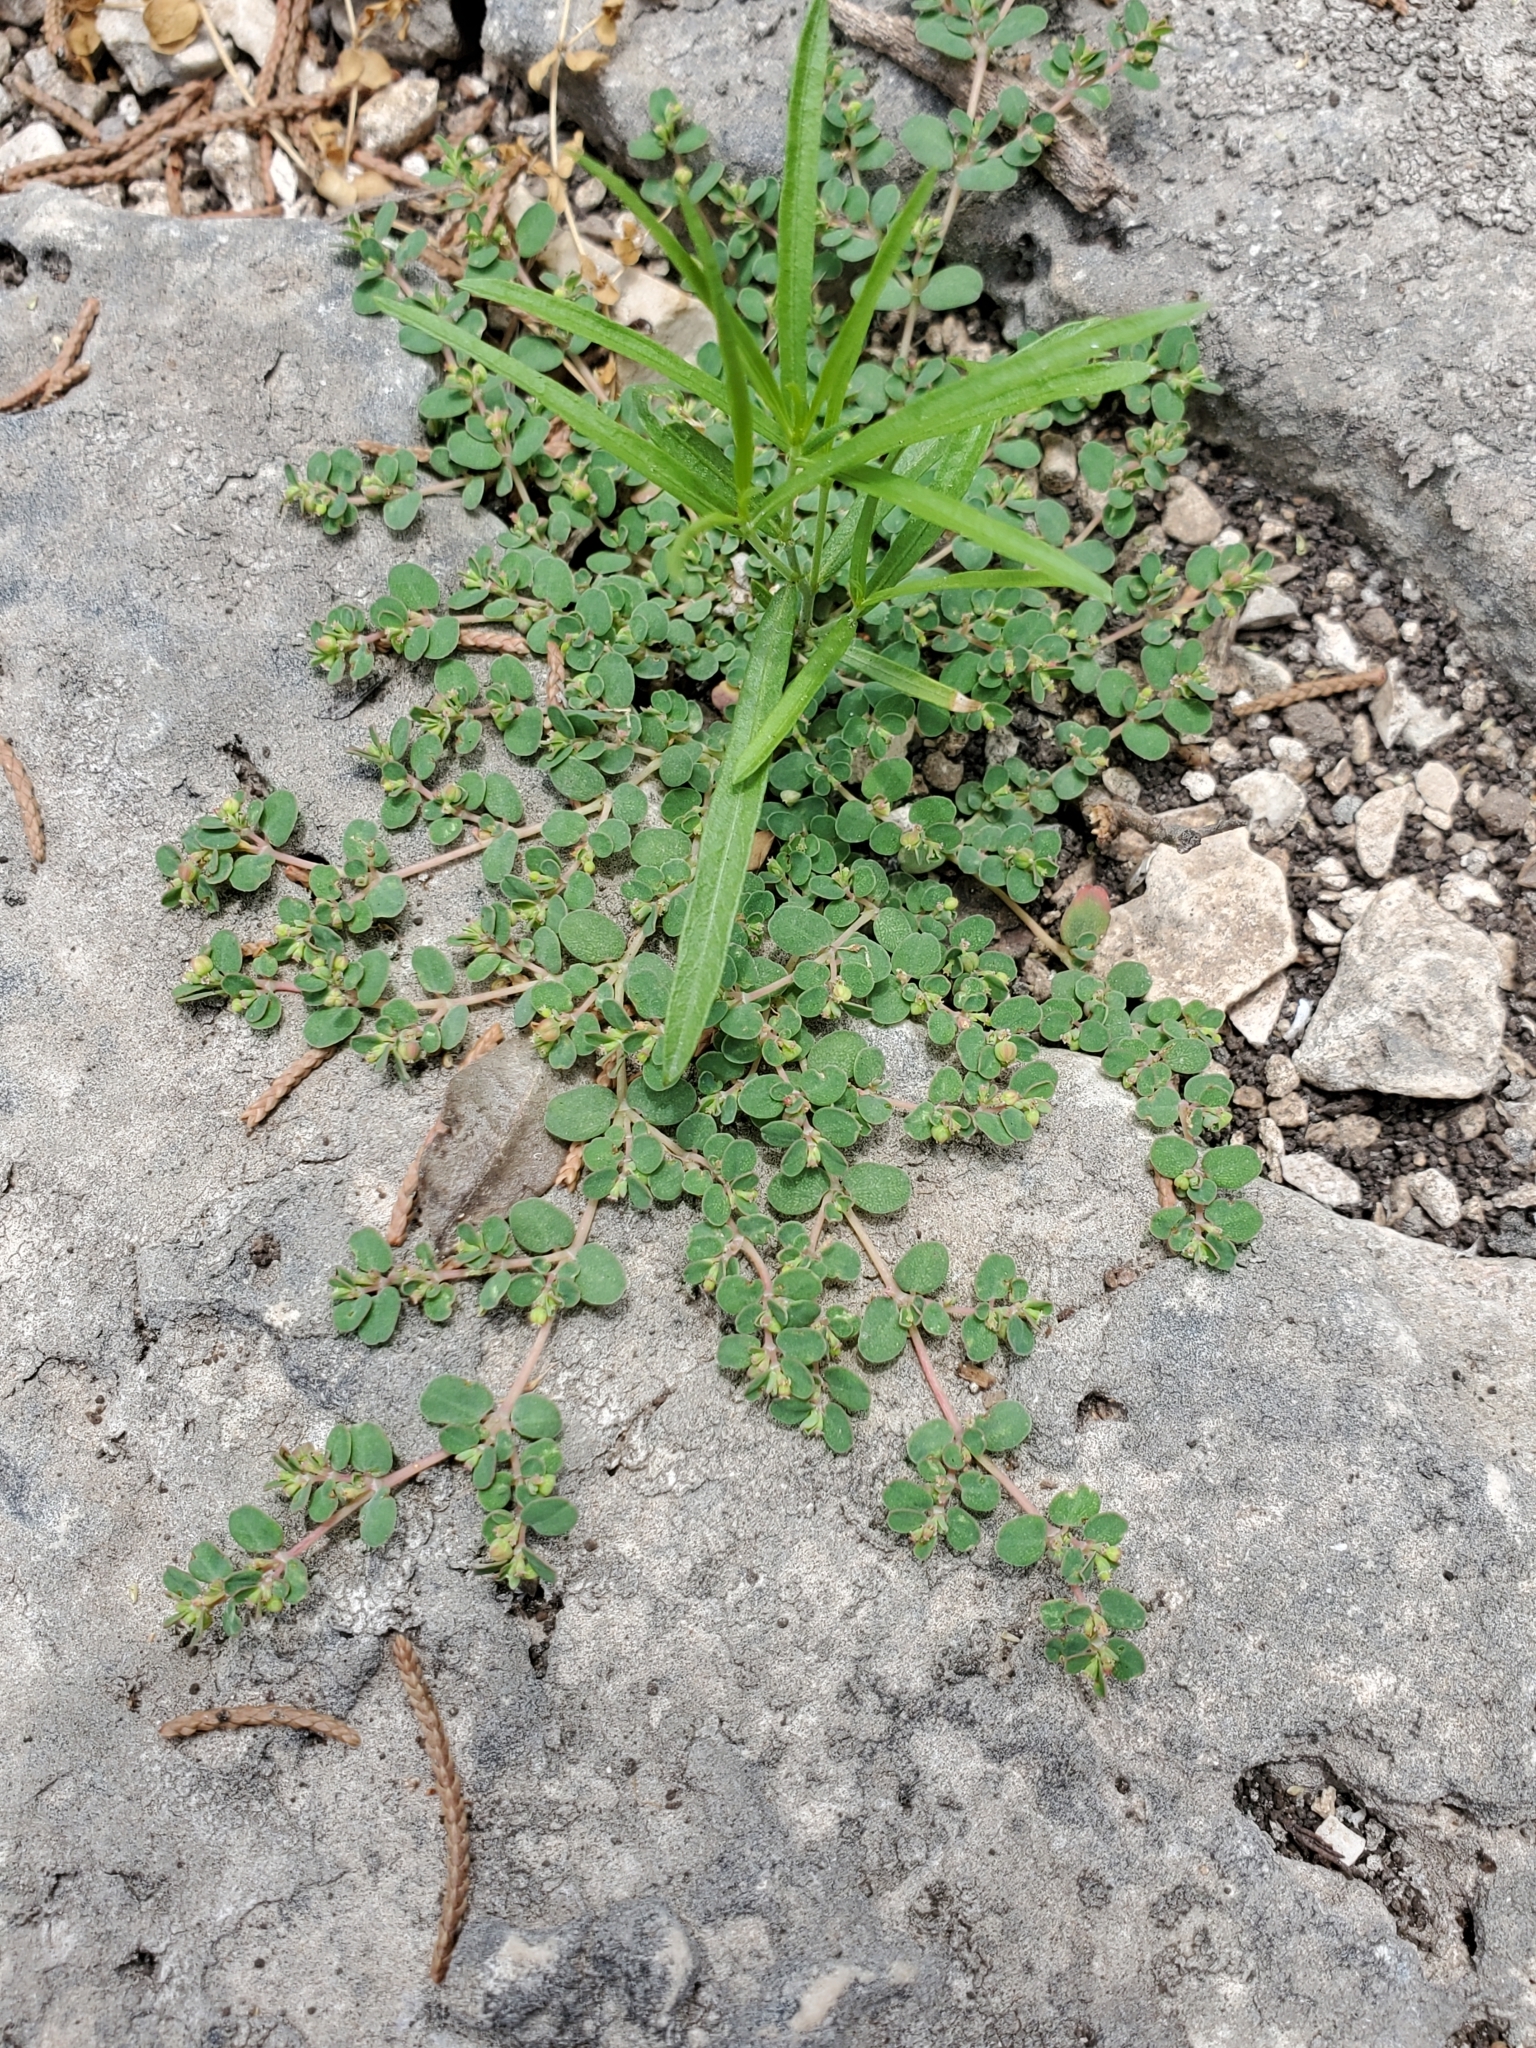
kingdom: Plantae
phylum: Tracheophyta
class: Magnoliopsida
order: Malpighiales
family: Euphorbiaceae
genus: Euphorbia
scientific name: Euphorbia serpens
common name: Matted sandmat
